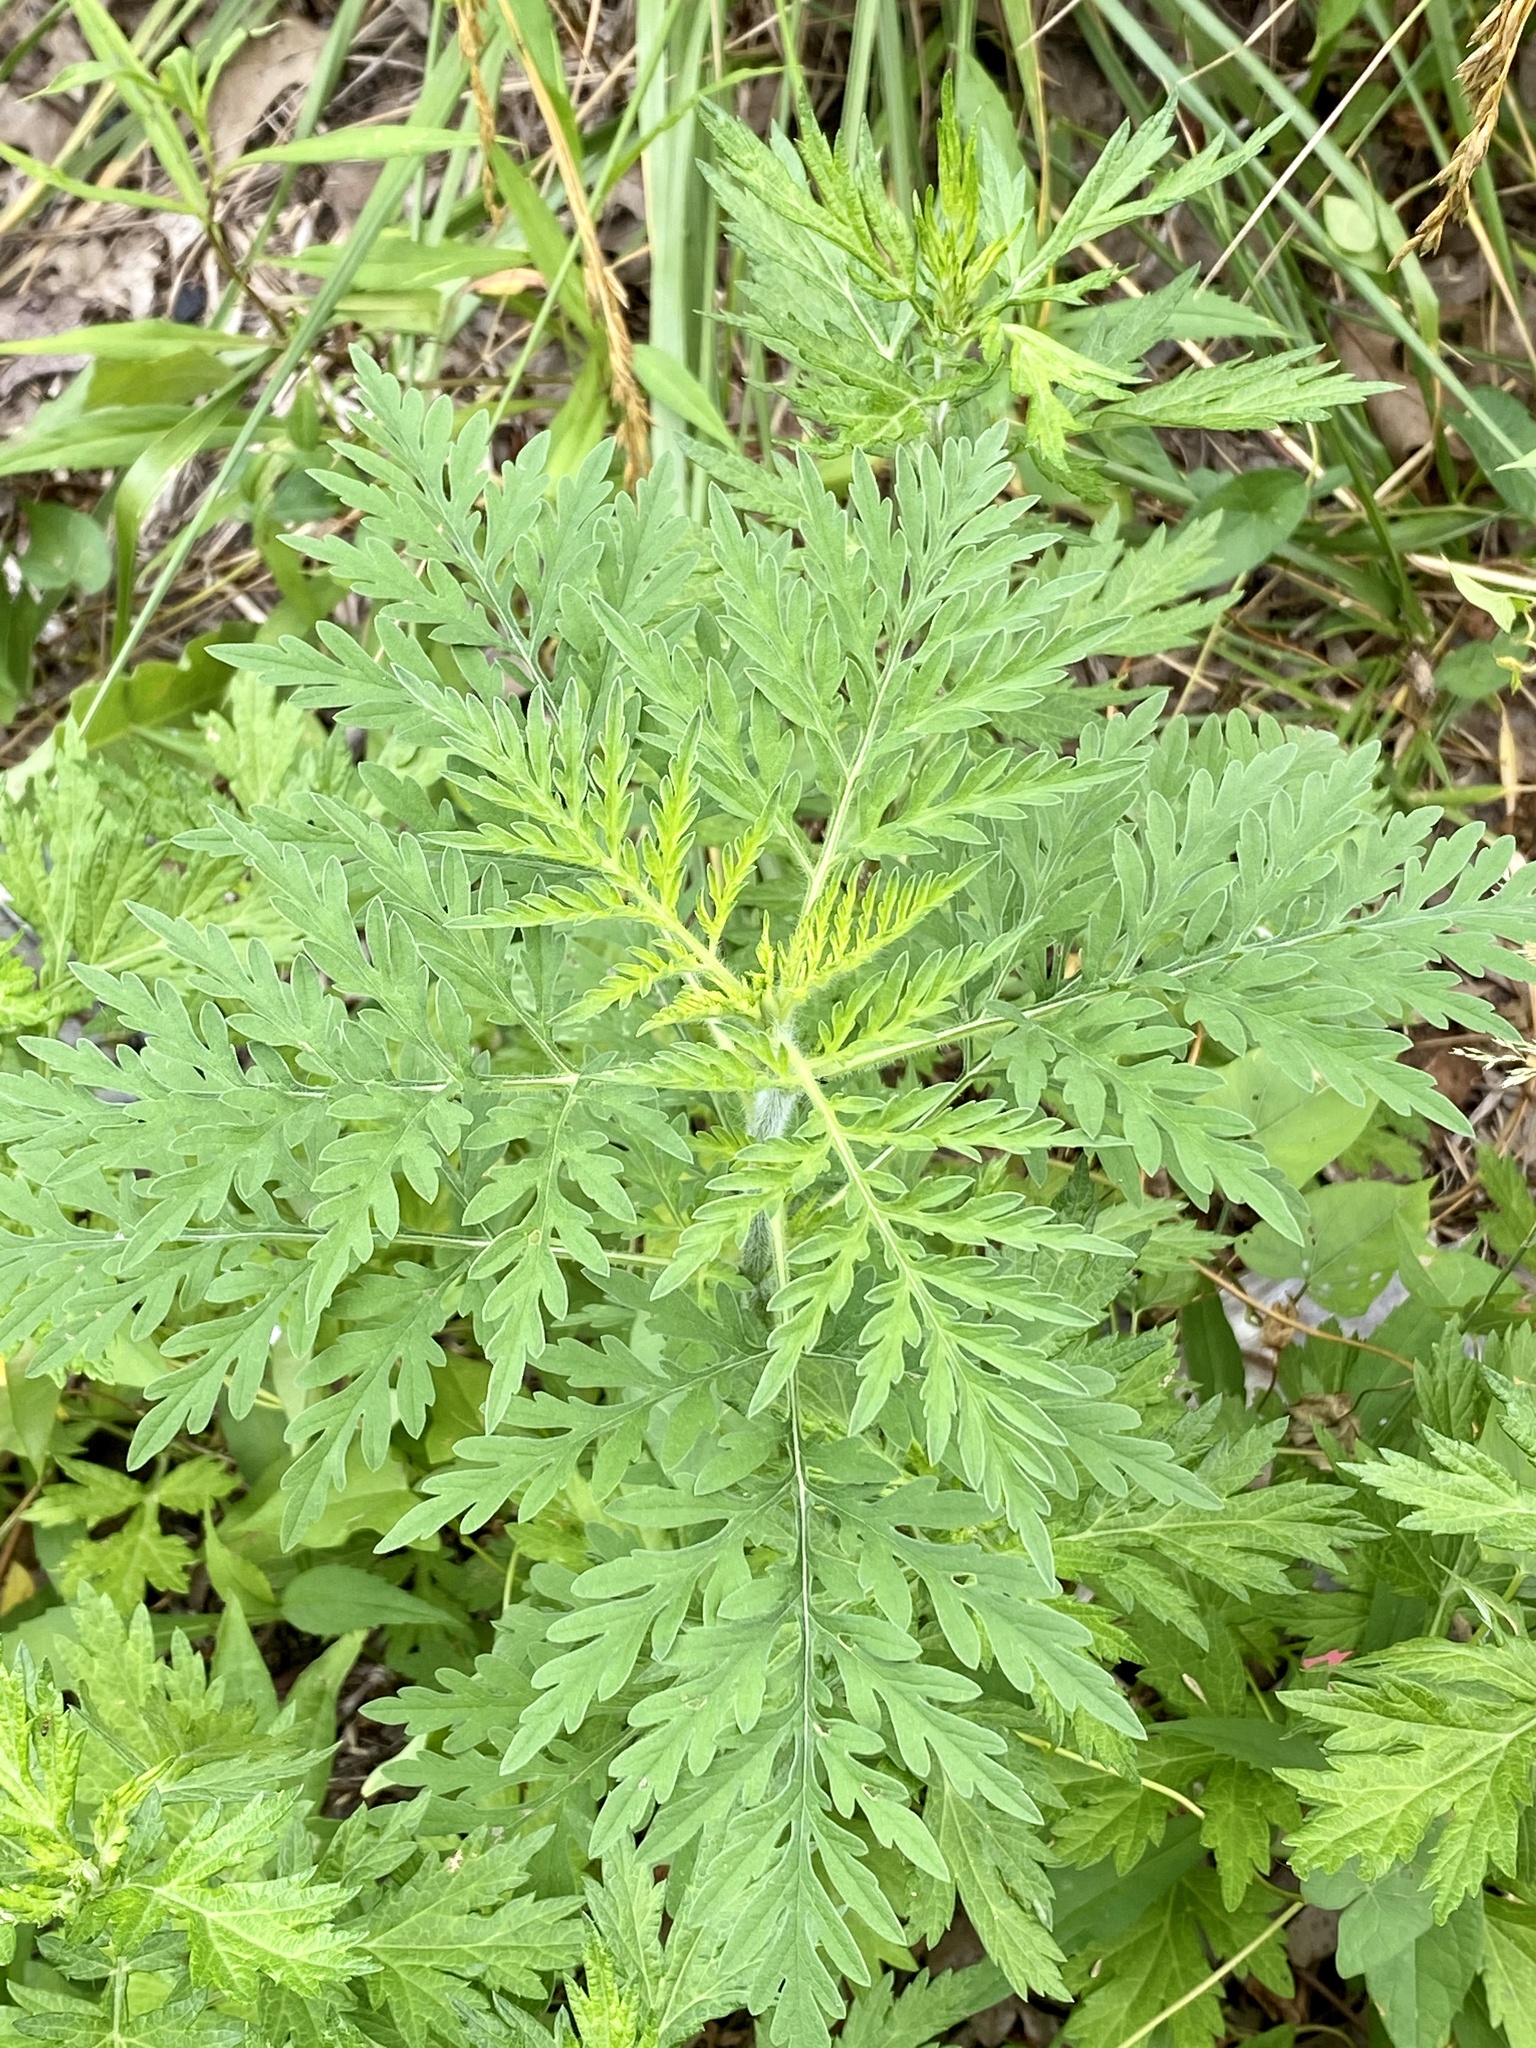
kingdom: Plantae
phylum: Tracheophyta
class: Magnoliopsida
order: Asterales
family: Asteraceae
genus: Ambrosia
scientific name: Ambrosia artemisiifolia
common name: Annual ragweed
